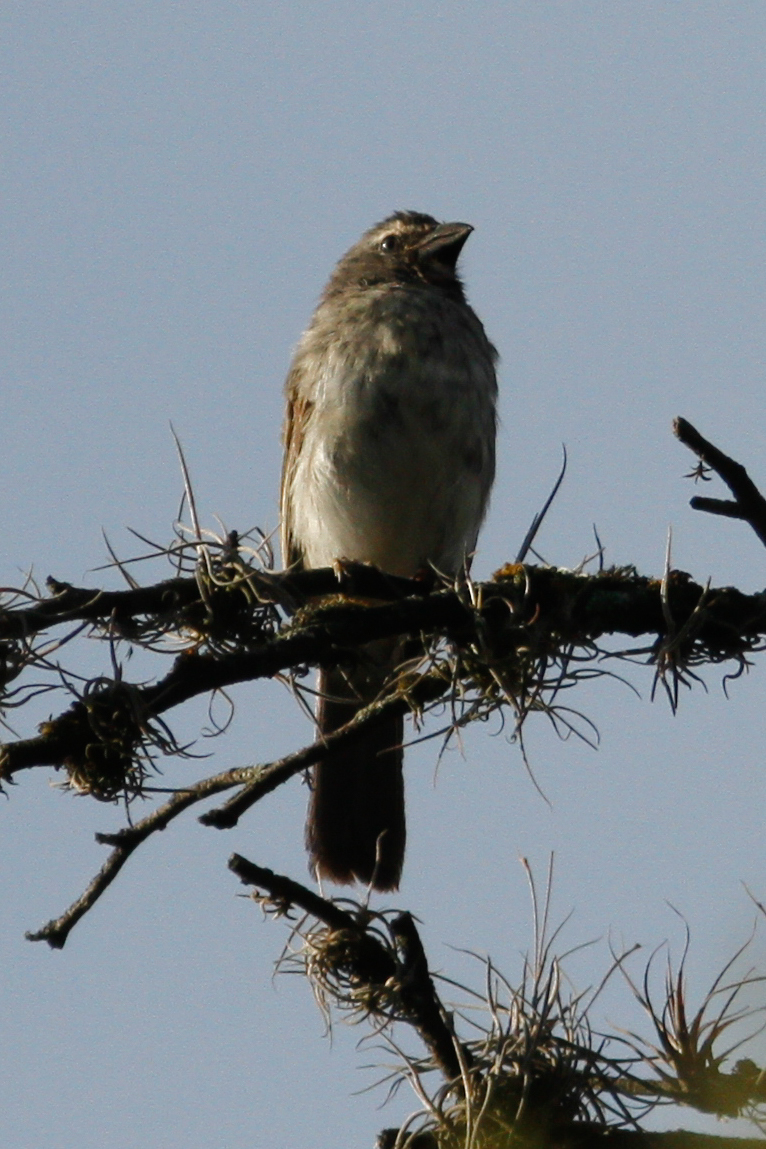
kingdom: Animalia
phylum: Chordata
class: Aves
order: Passeriformes
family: Thraupidae
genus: Saltator
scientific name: Saltator striatipectus
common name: Streaked saltator
